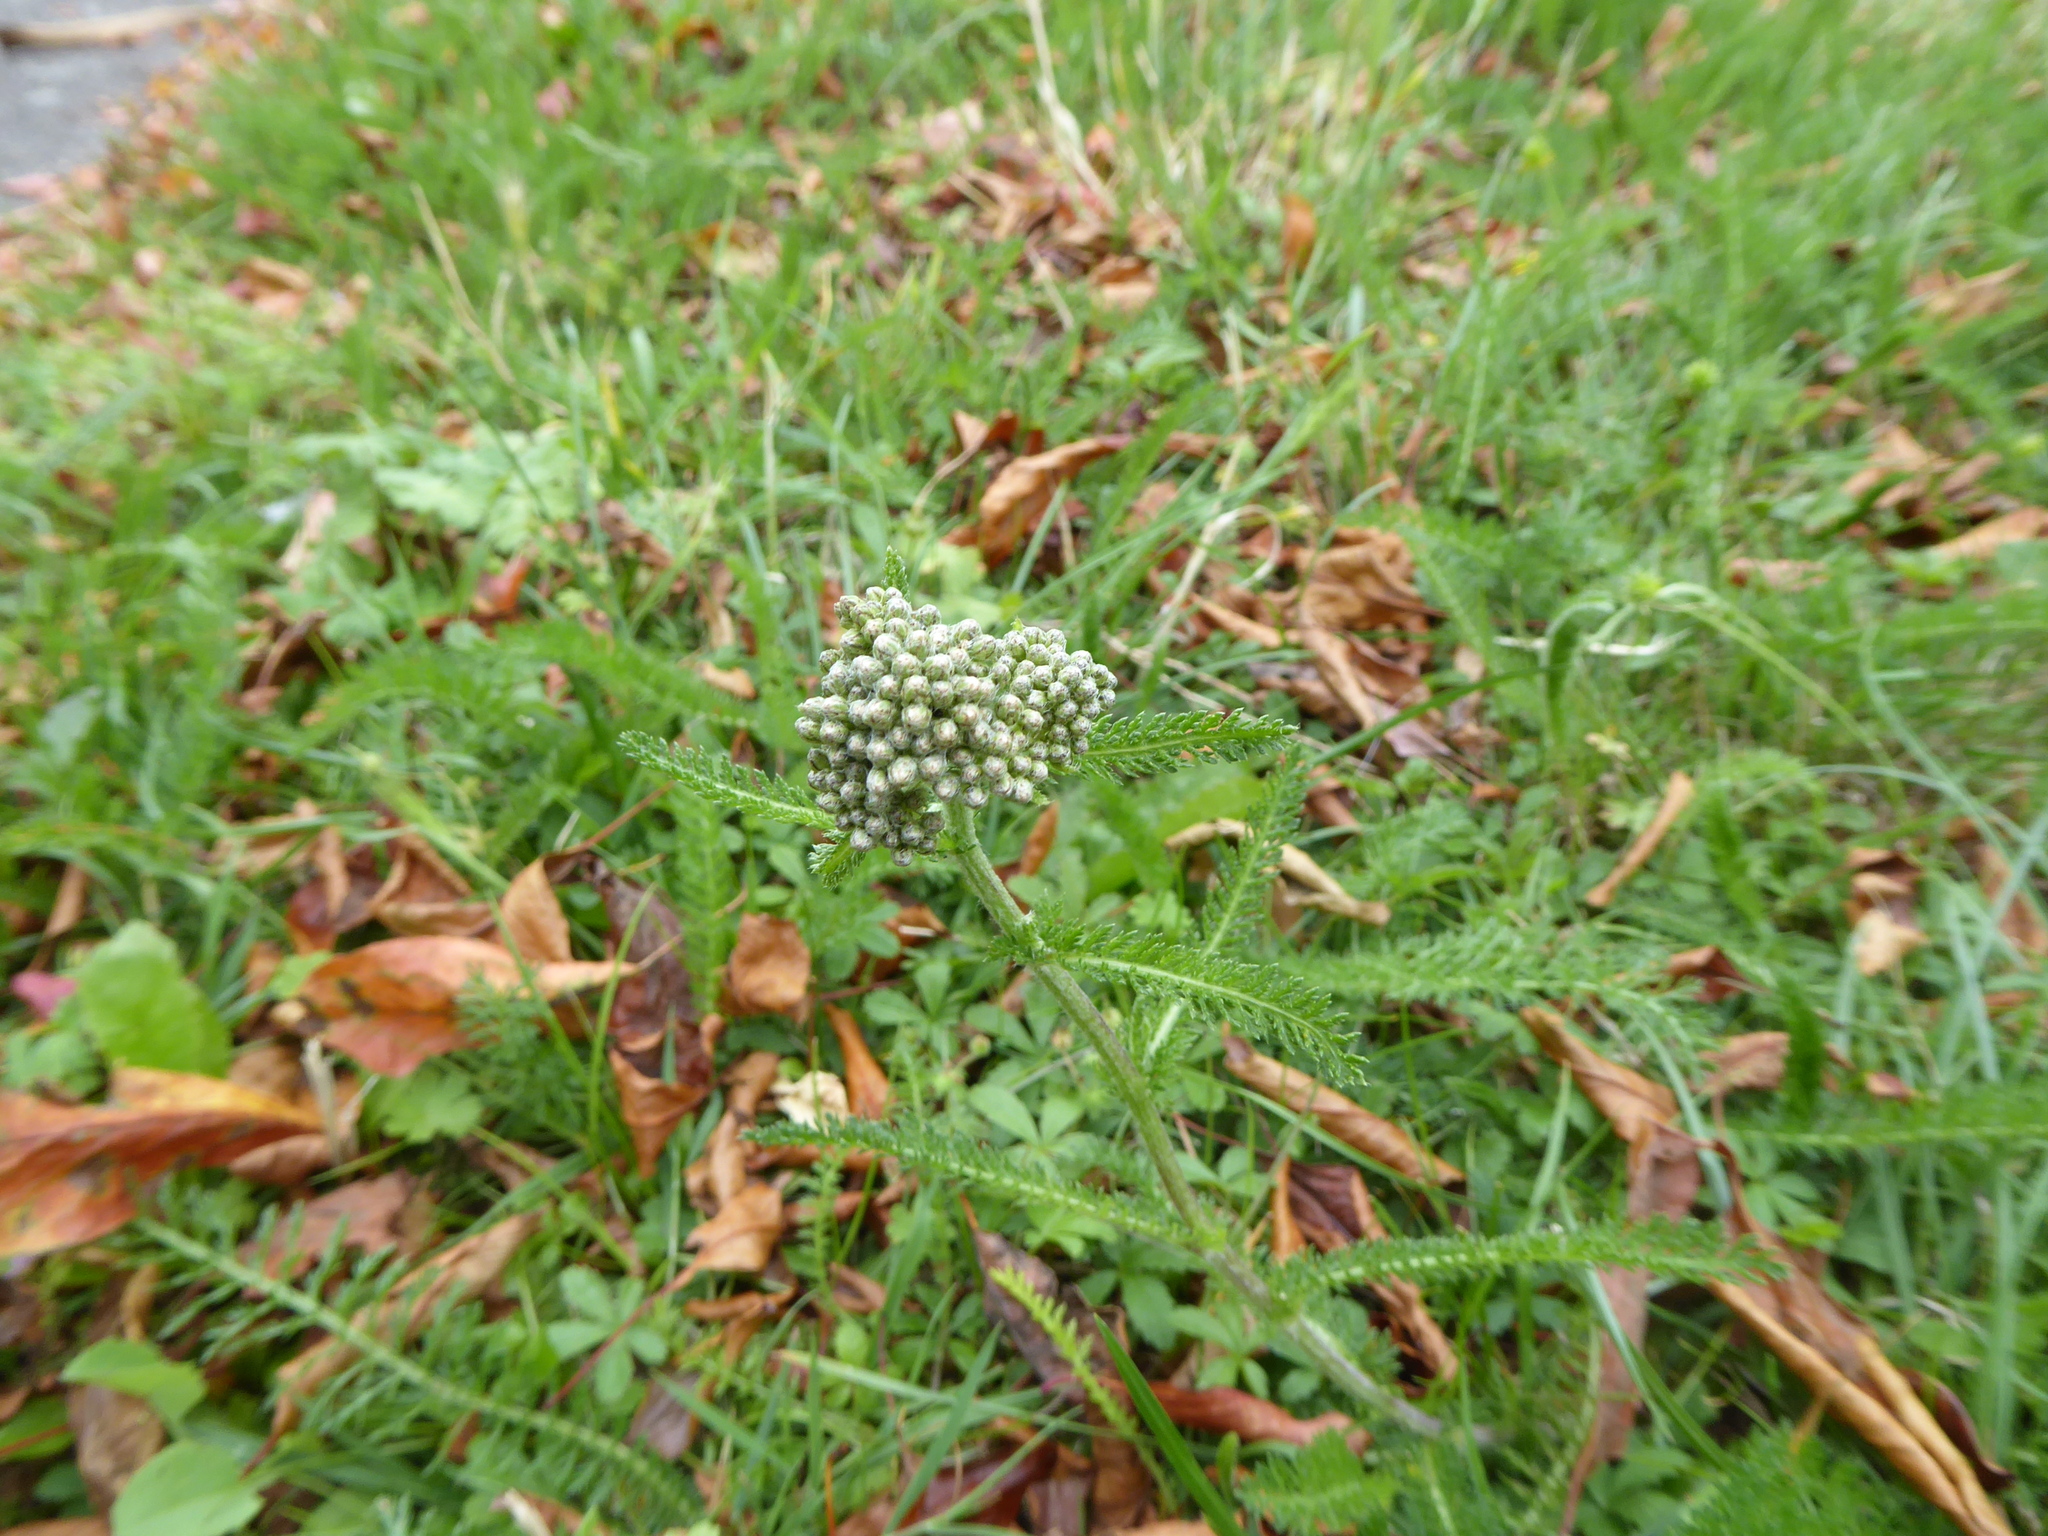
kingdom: Plantae
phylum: Tracheophyta
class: Magnoliopsida
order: Asterales
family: Asteraceae
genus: Achillea
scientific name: Achillea millefolium
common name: Yarrow
